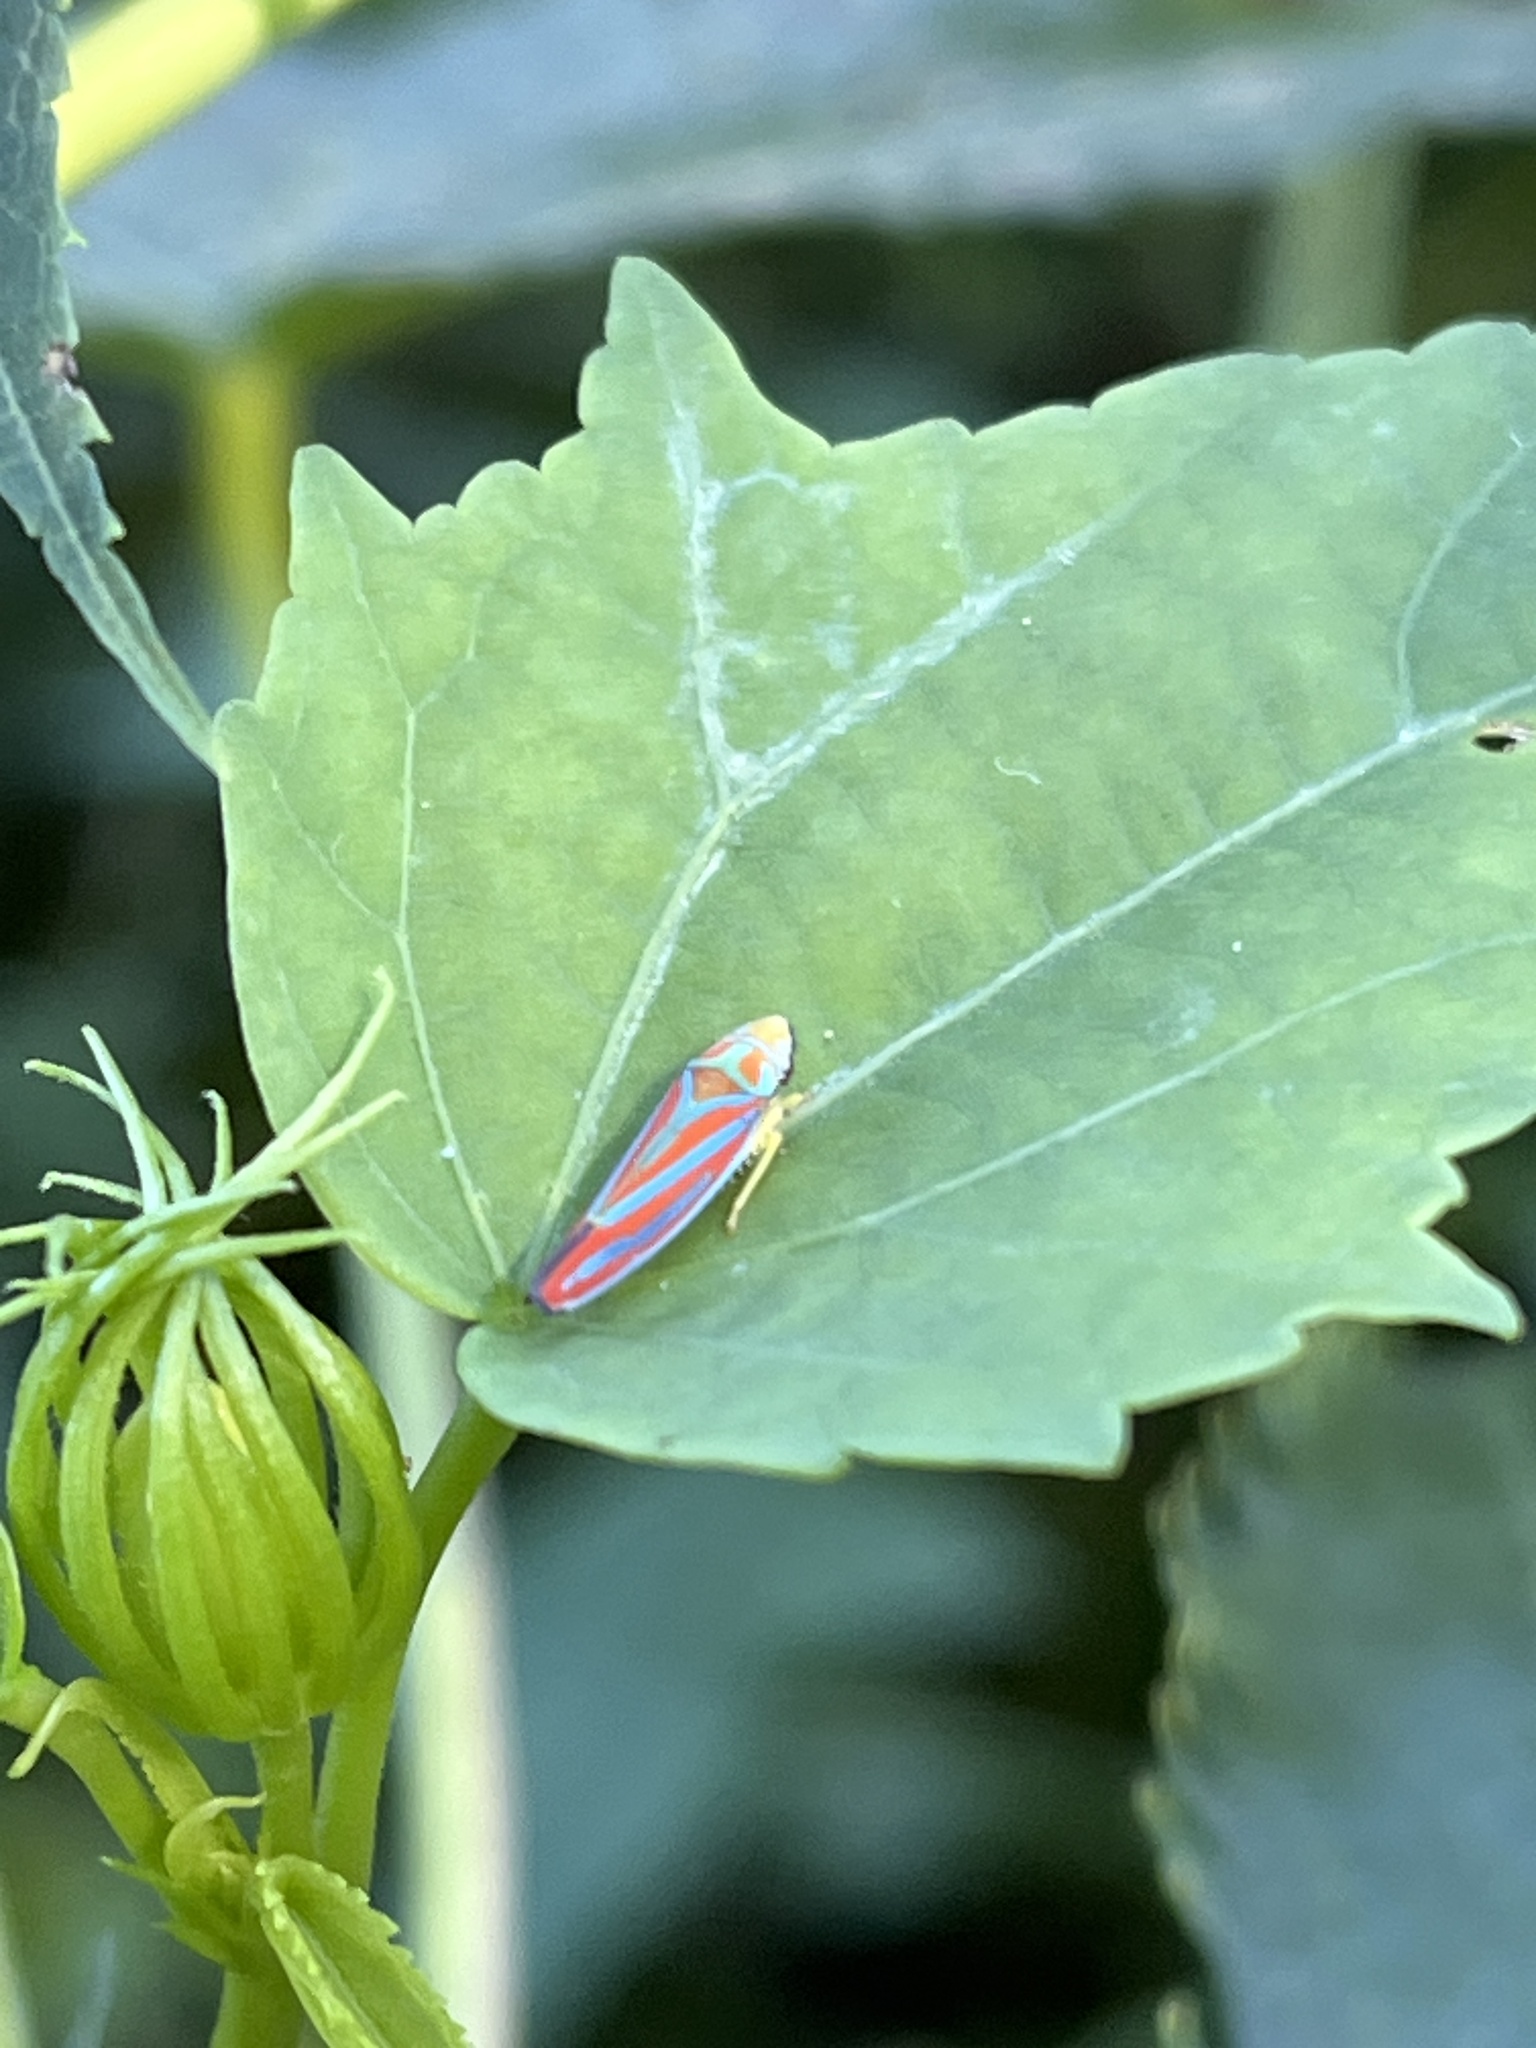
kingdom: Animalia
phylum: Arthropoda
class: Insecta
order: Hemiptera
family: Cicadellidae
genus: Graphocephala
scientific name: Graphocephala coccinea
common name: Candy-striped leafhopper
